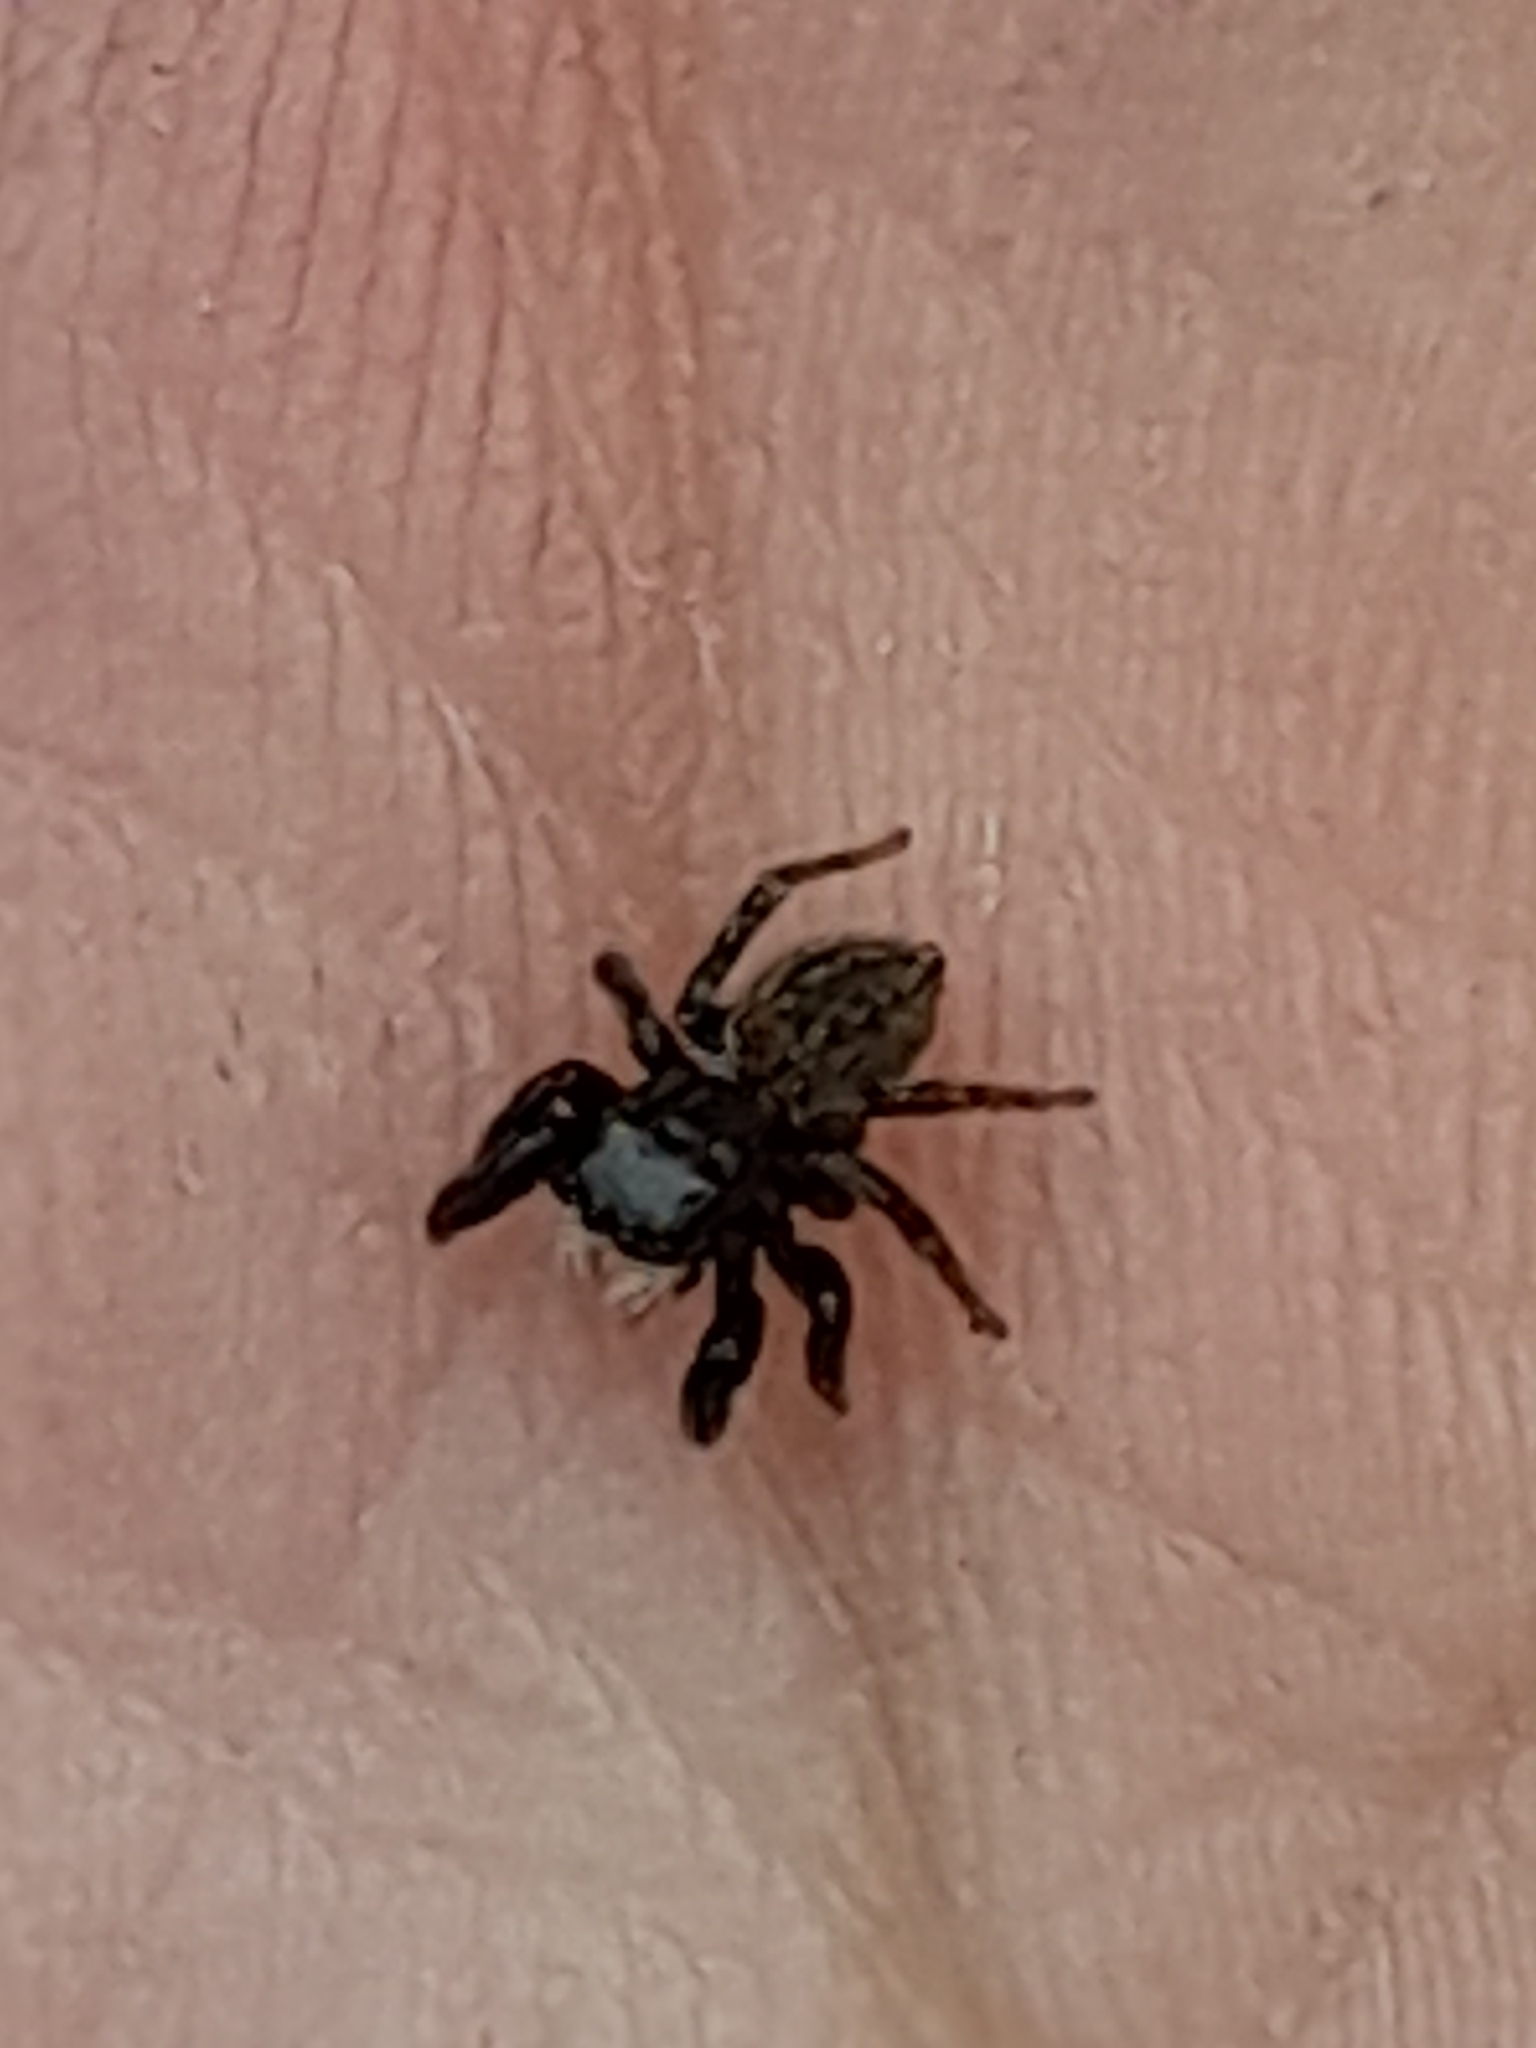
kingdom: Animalia
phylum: Arthropoda
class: Arachnida
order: Araneae
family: Salticidae
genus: Euophrys
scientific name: Euophrys herbigrada
